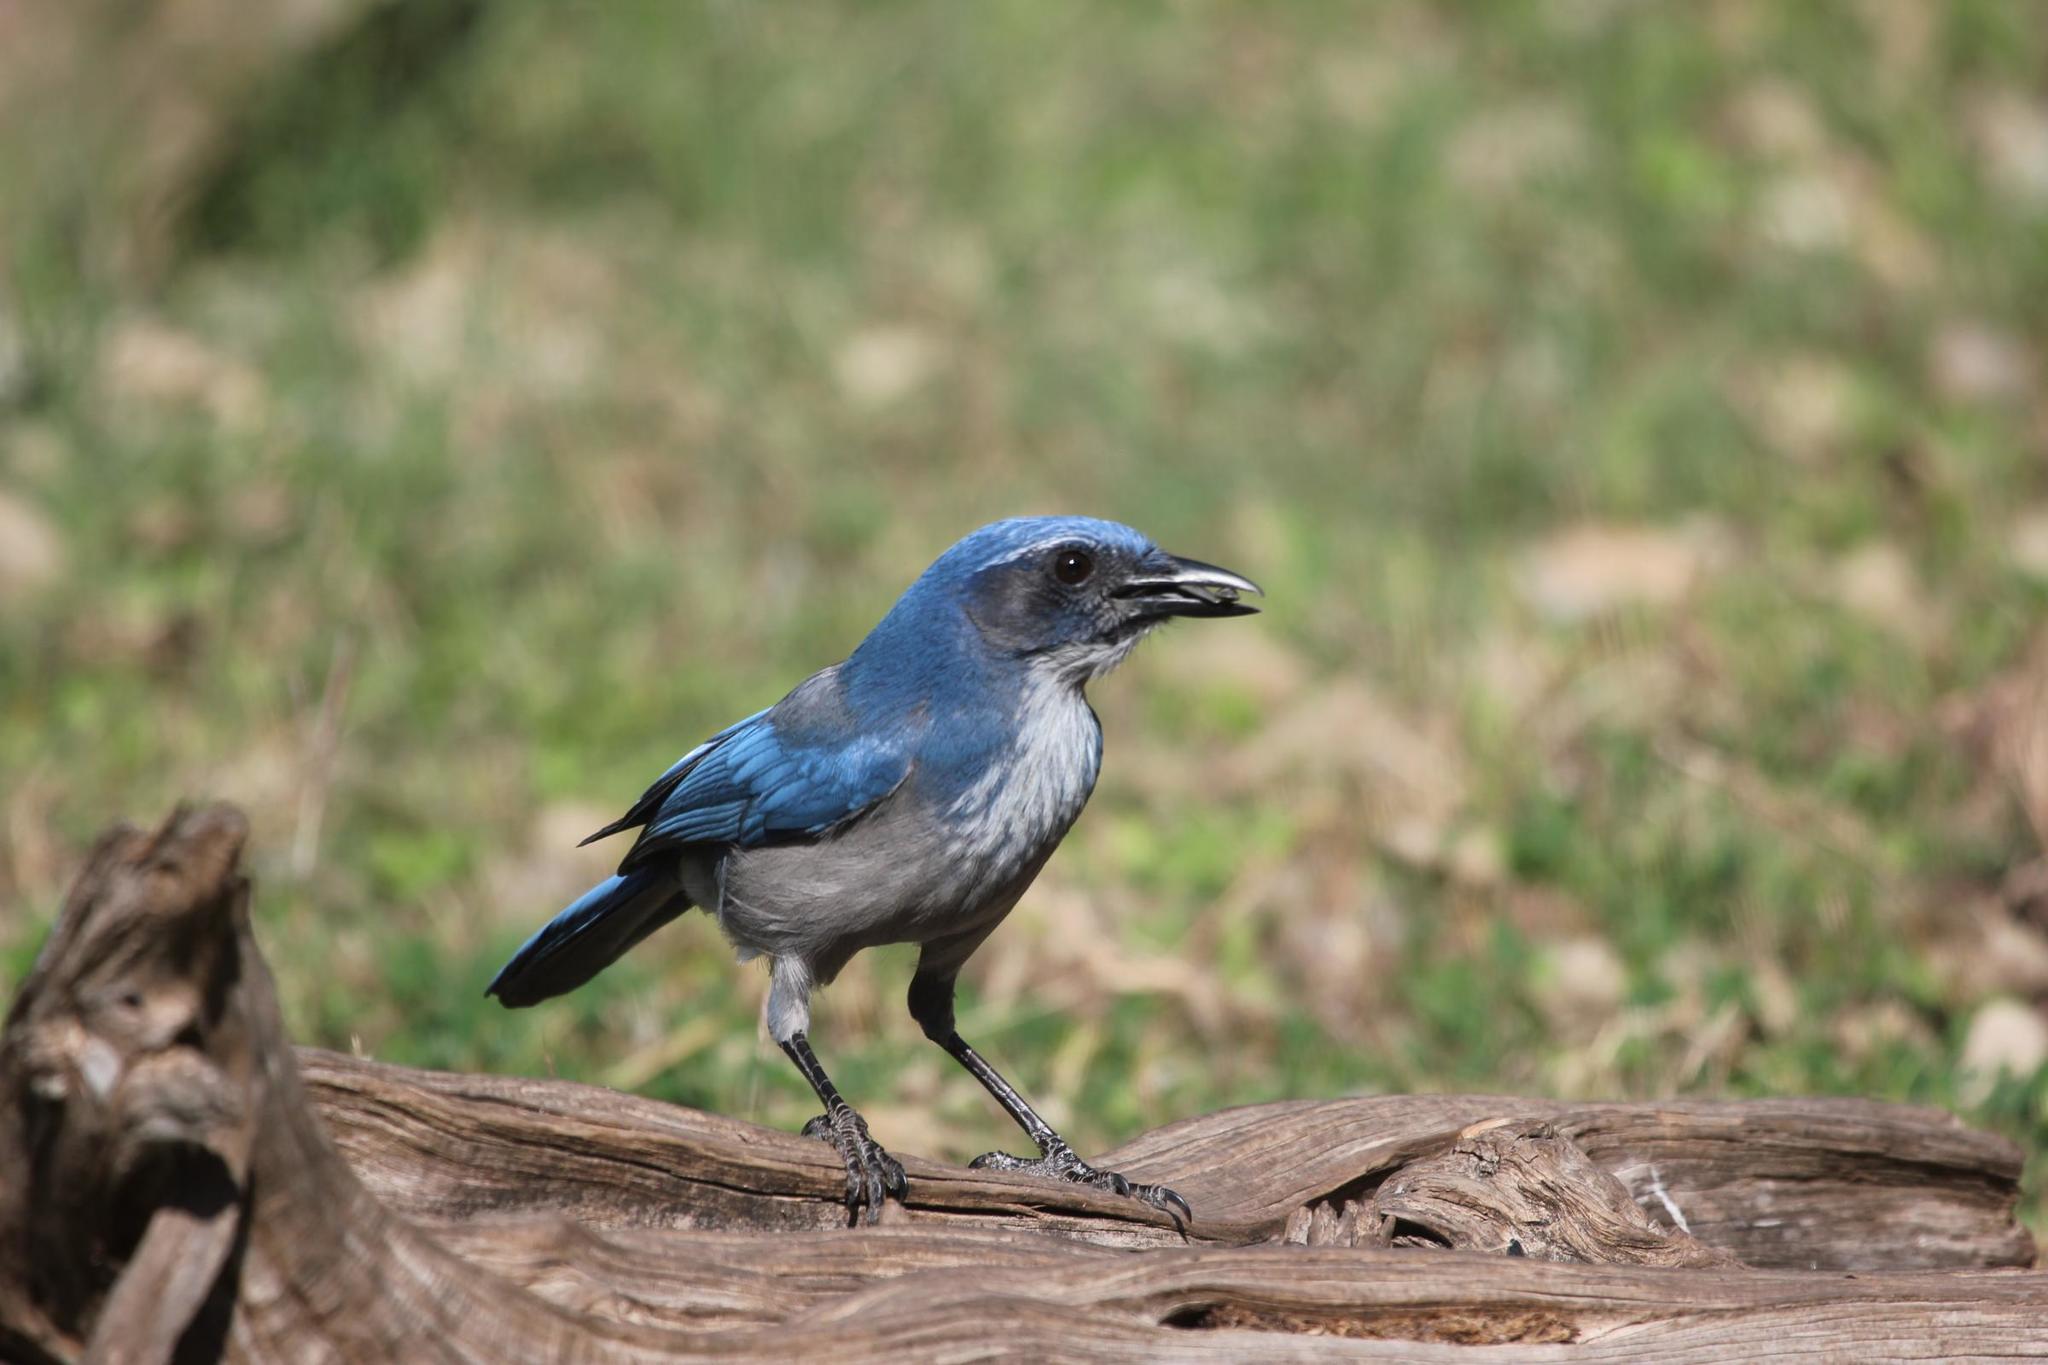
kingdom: Animalia
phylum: Chordata
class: Aves
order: Passeriformes
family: Corvidae
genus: Aphelocoma
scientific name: Aphelocoma woodhouseii
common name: Woodhouse's scrub-jay
